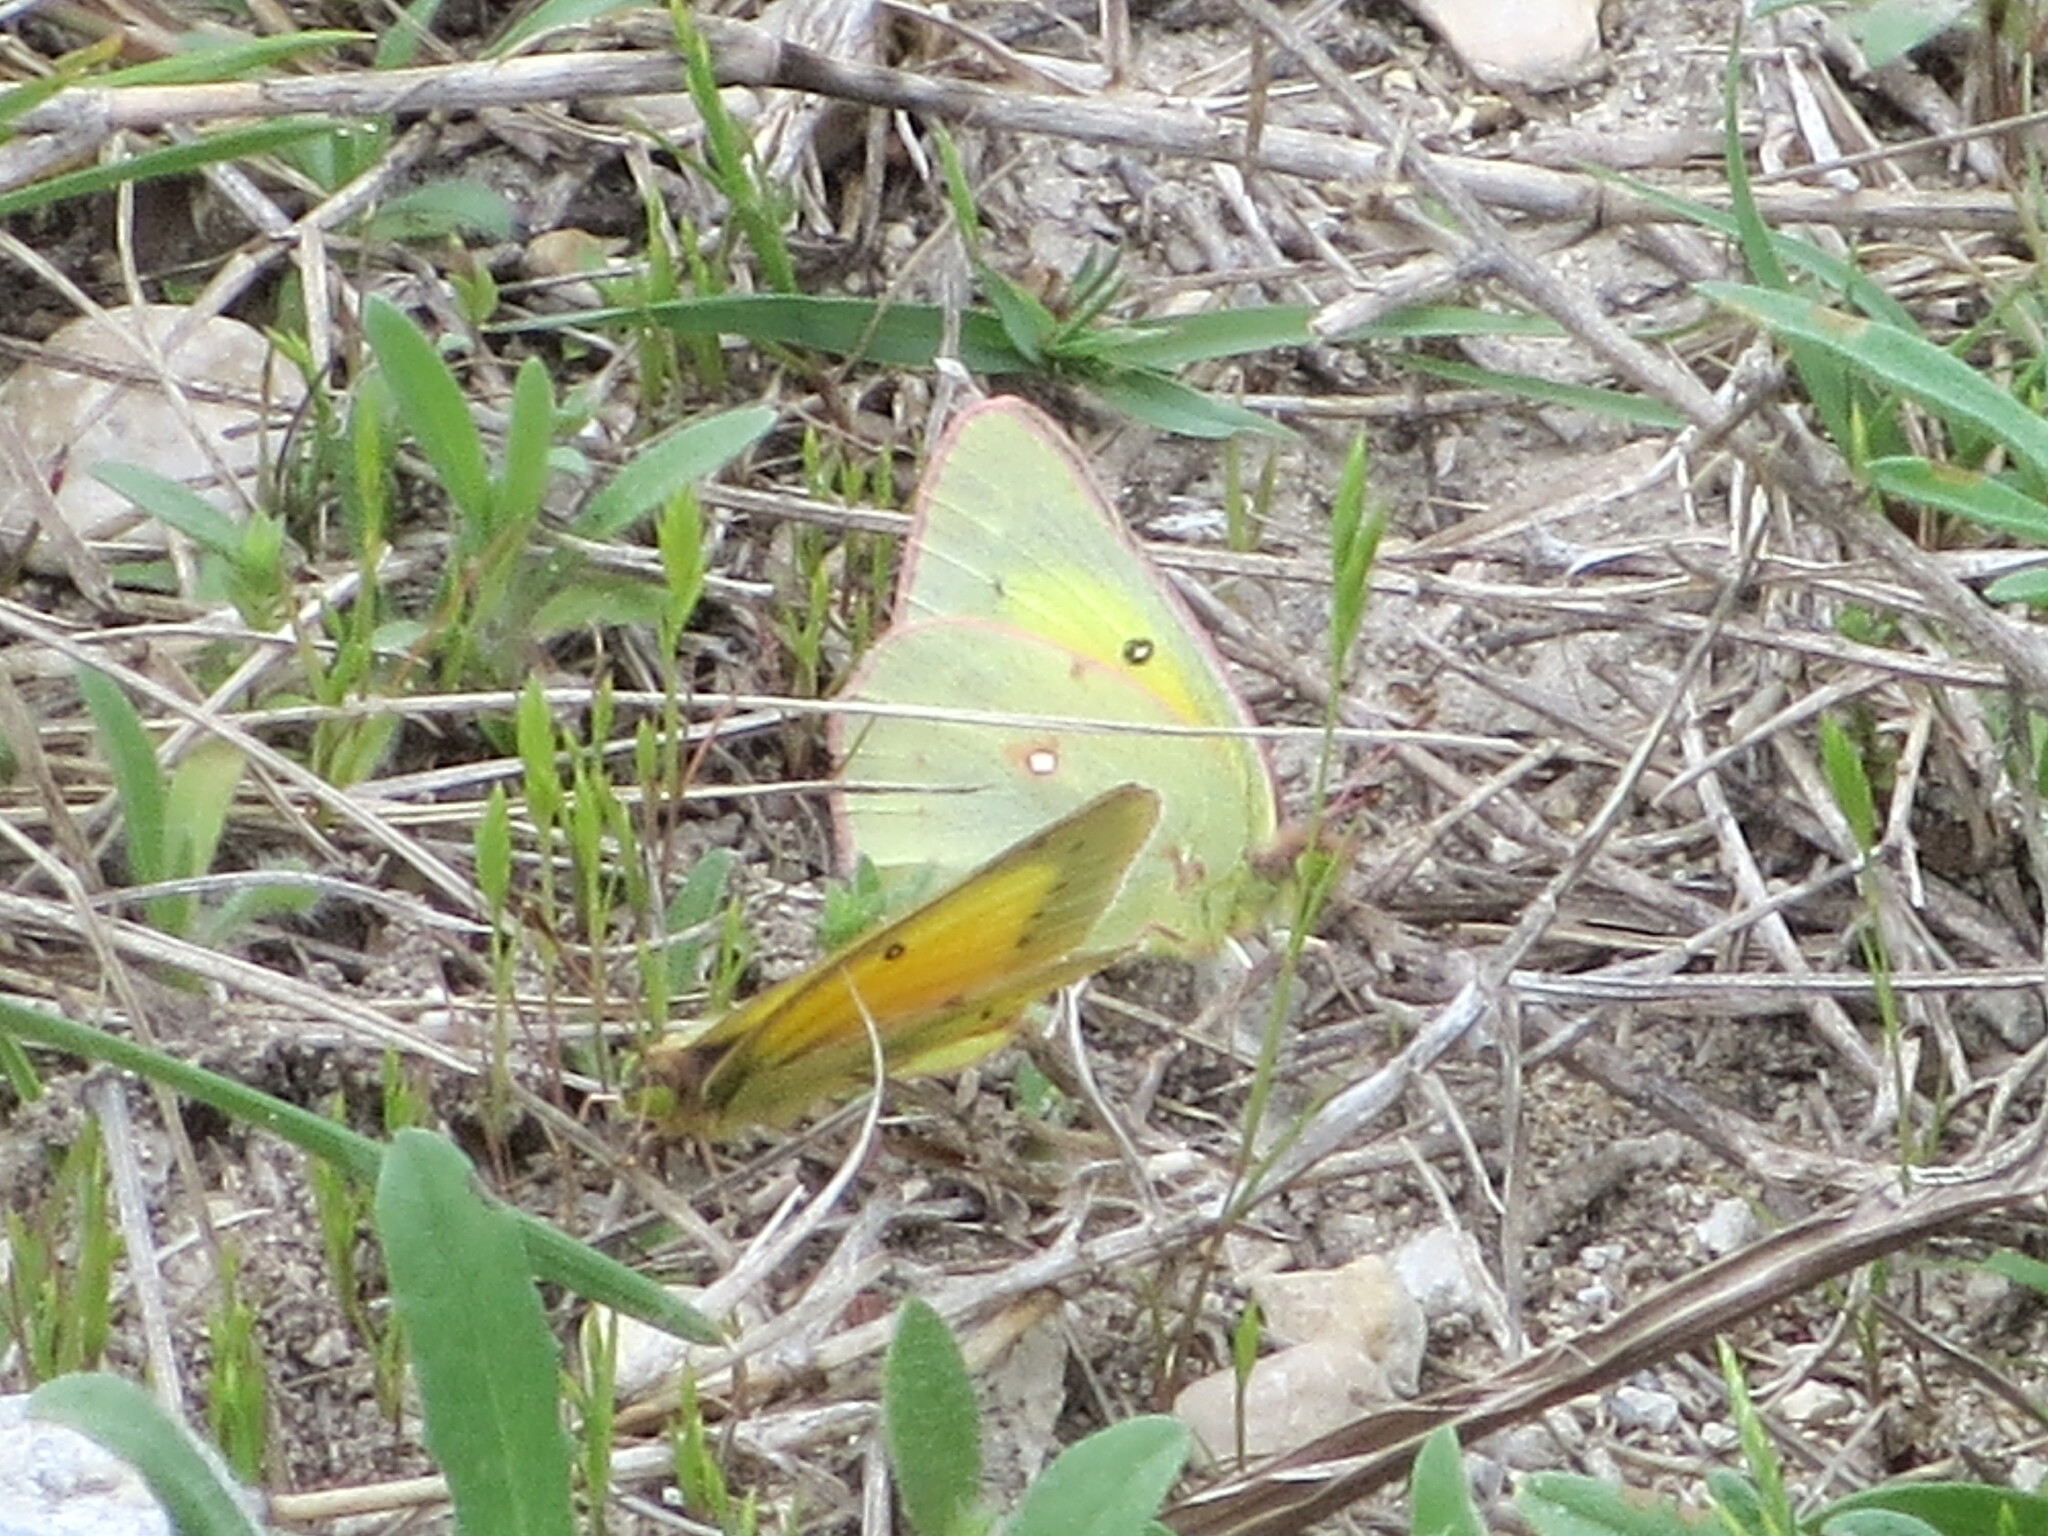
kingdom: Animalia
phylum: Arthropoda
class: Insecta
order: Lepidoptera
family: Pieridae
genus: Colias
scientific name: Colias eurytheme
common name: Alfalfa butterfly
